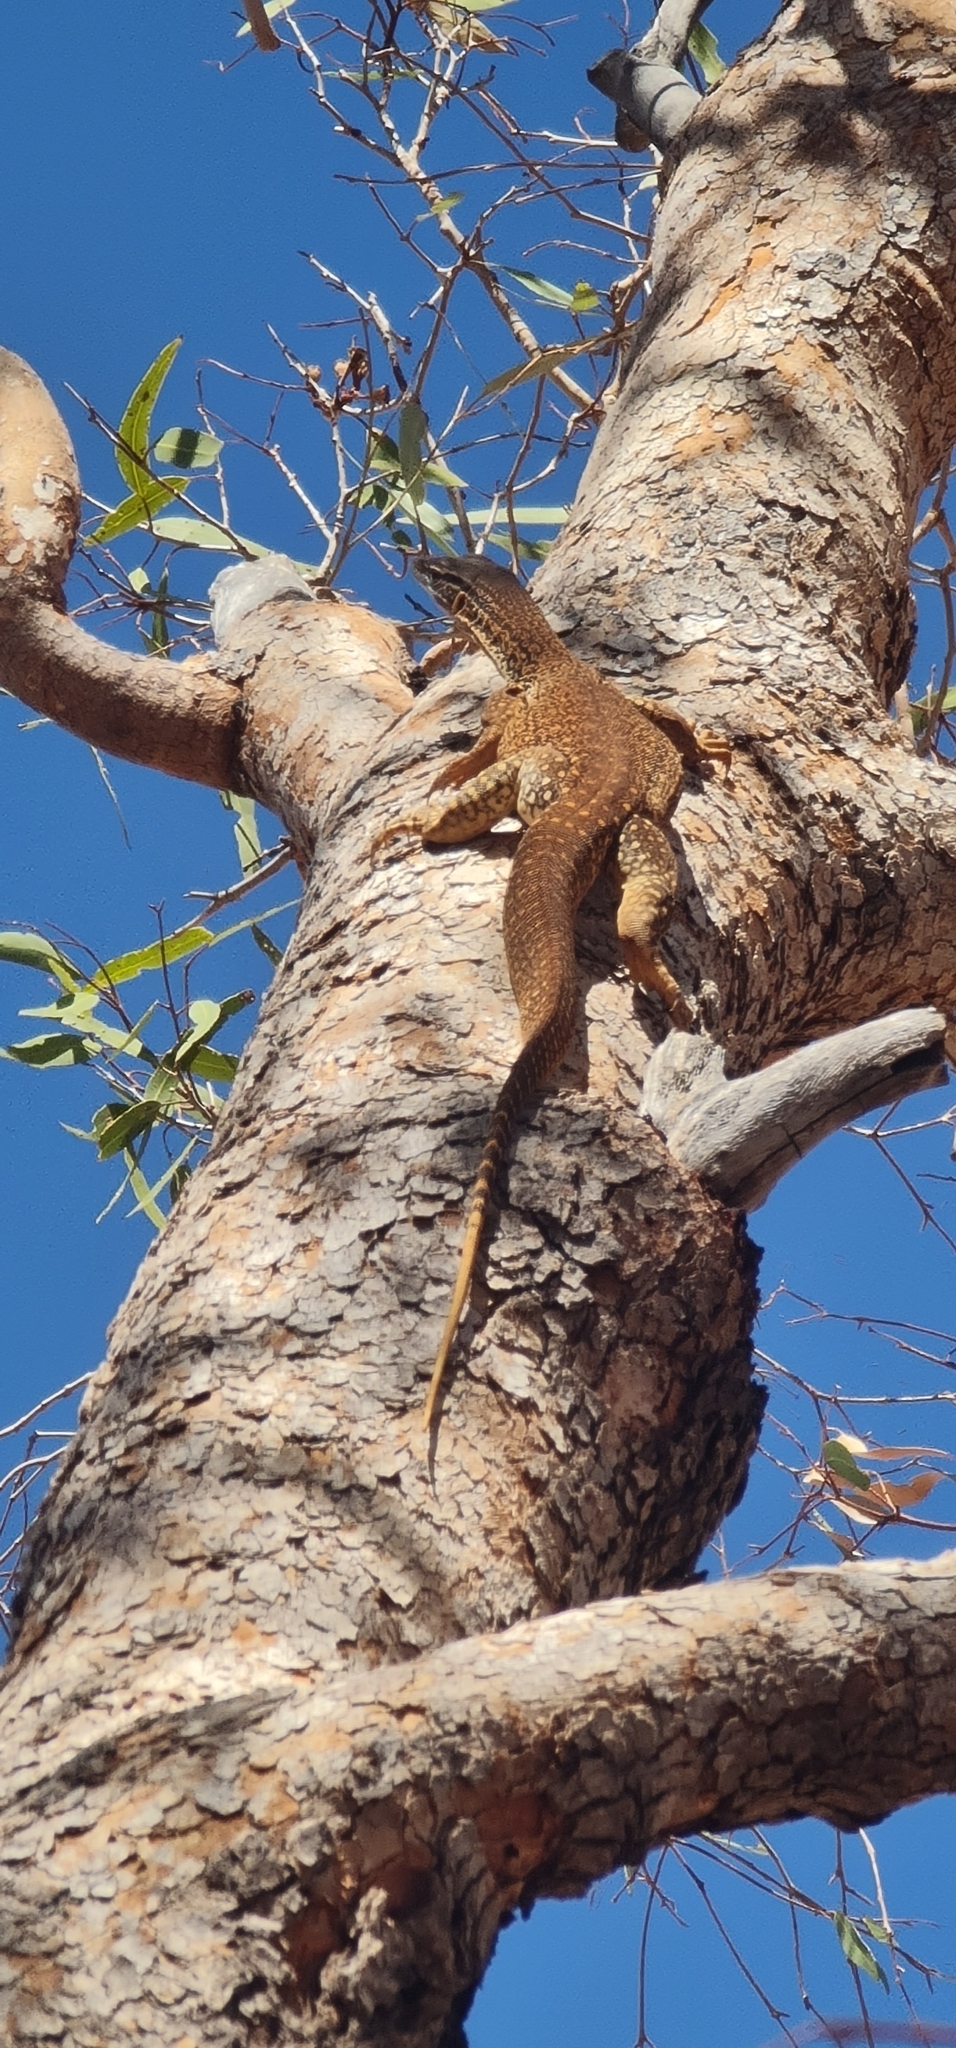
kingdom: Animalia
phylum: Chordata
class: Squamata
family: Varanidae
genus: Varanus
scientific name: Varanus gouldii
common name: Gould's goanna
